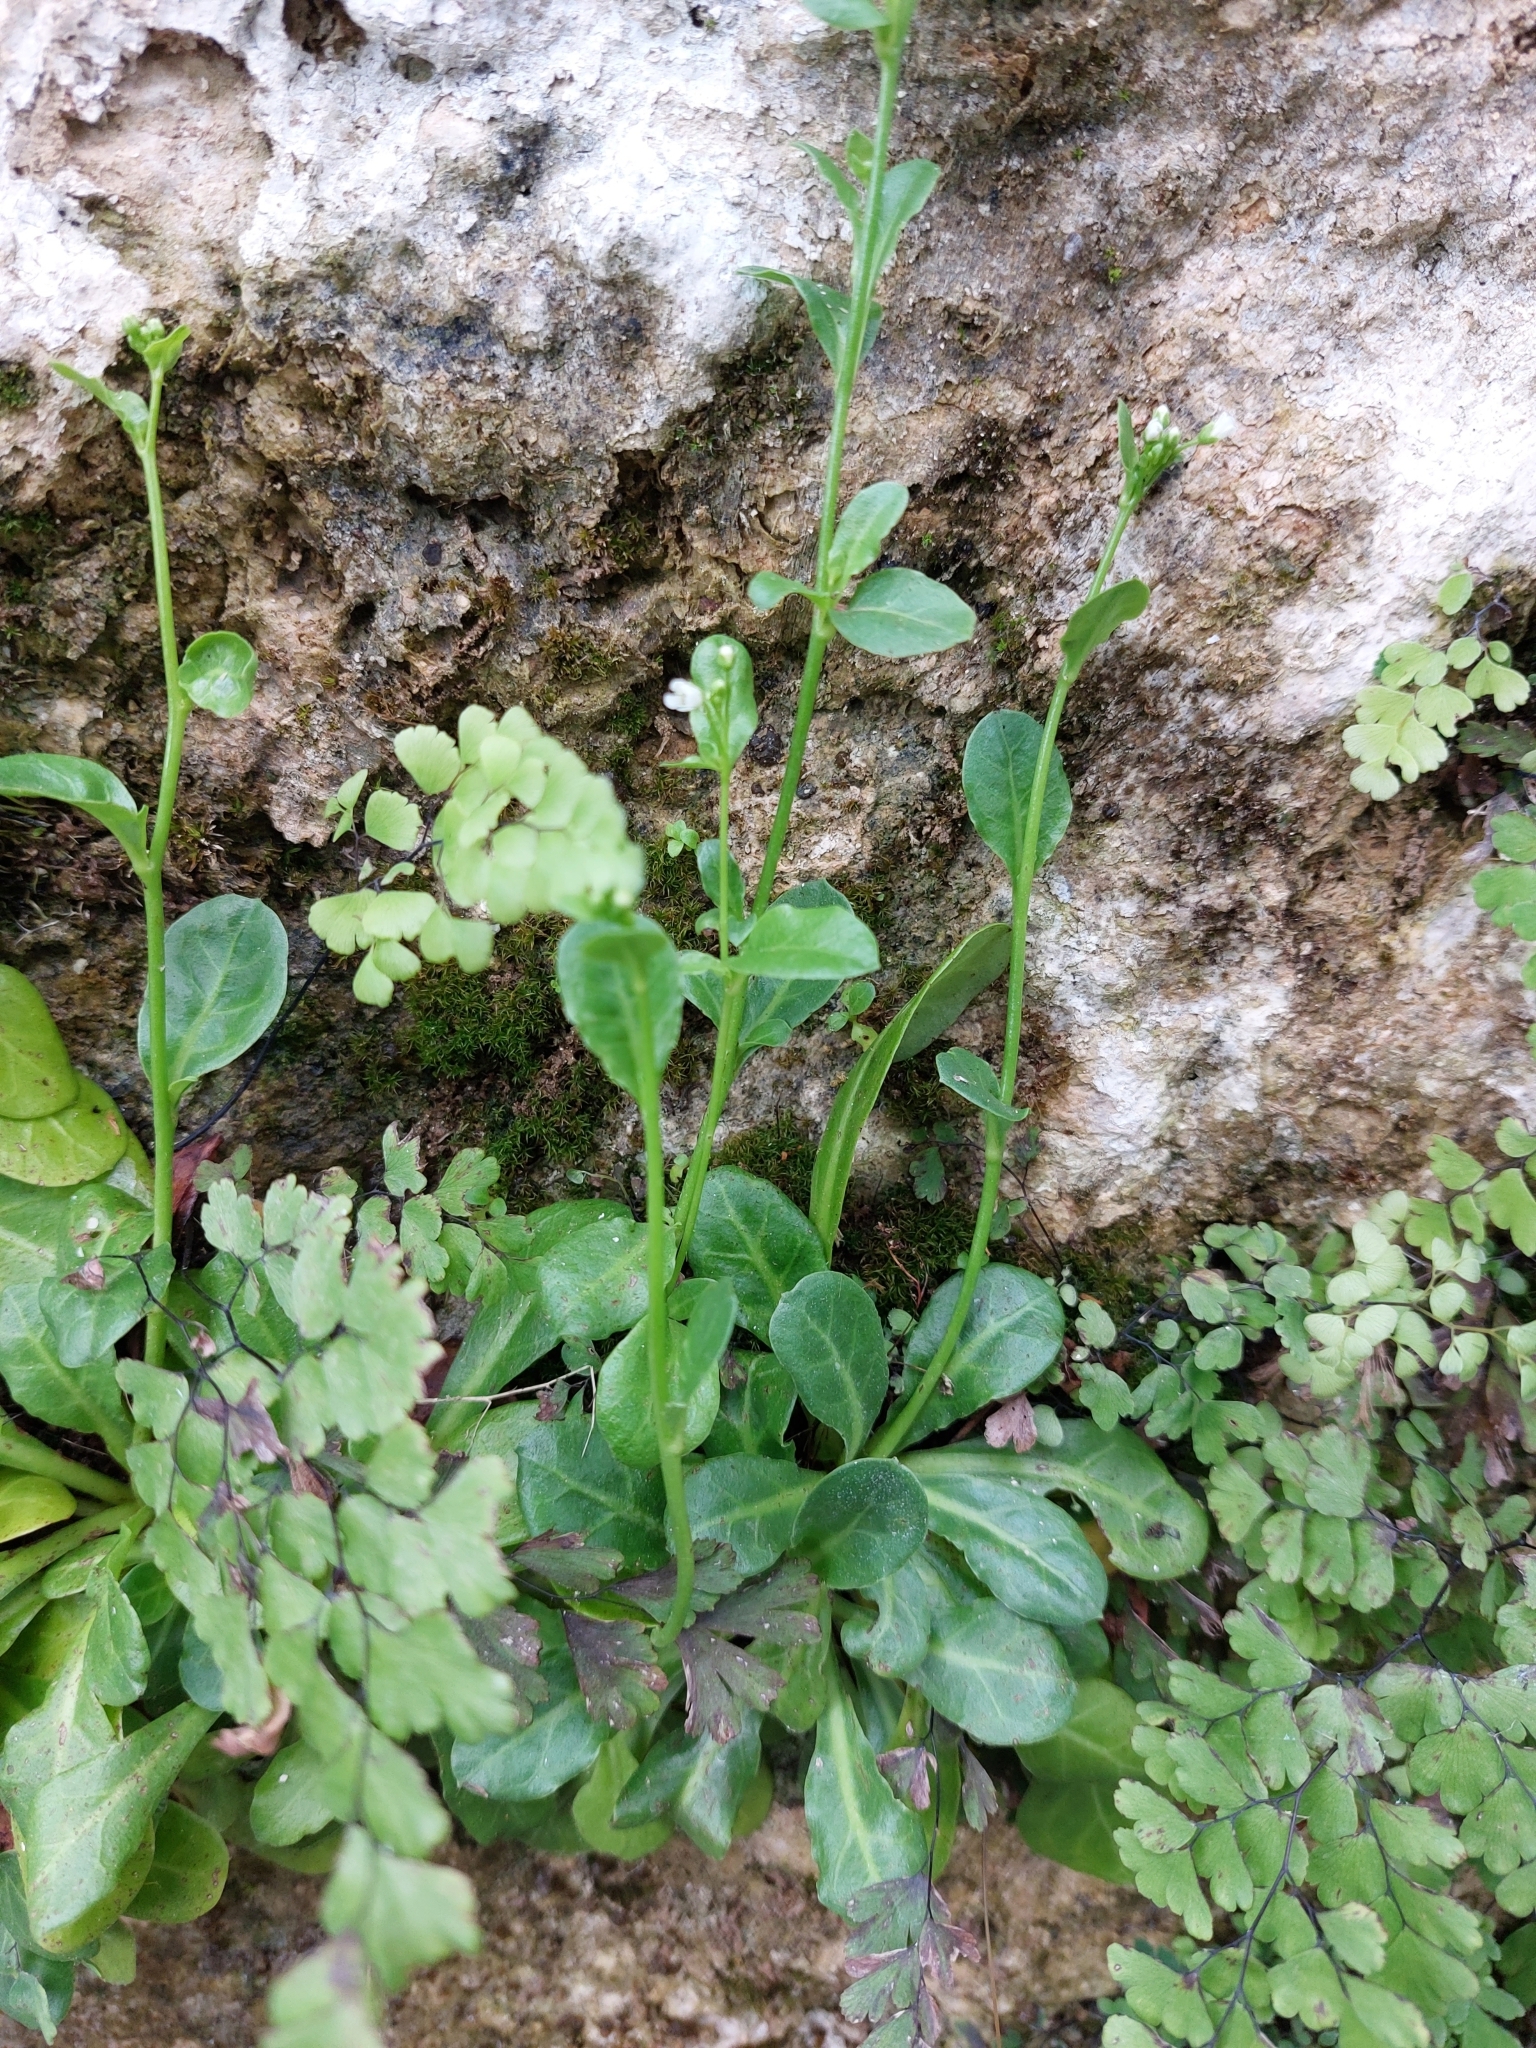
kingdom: Plantae
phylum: Tracheophyta
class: Magnoliopsida
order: Ericales
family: Primulaceae
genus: Samolus
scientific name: Samolus valerandi
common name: Brookweed
